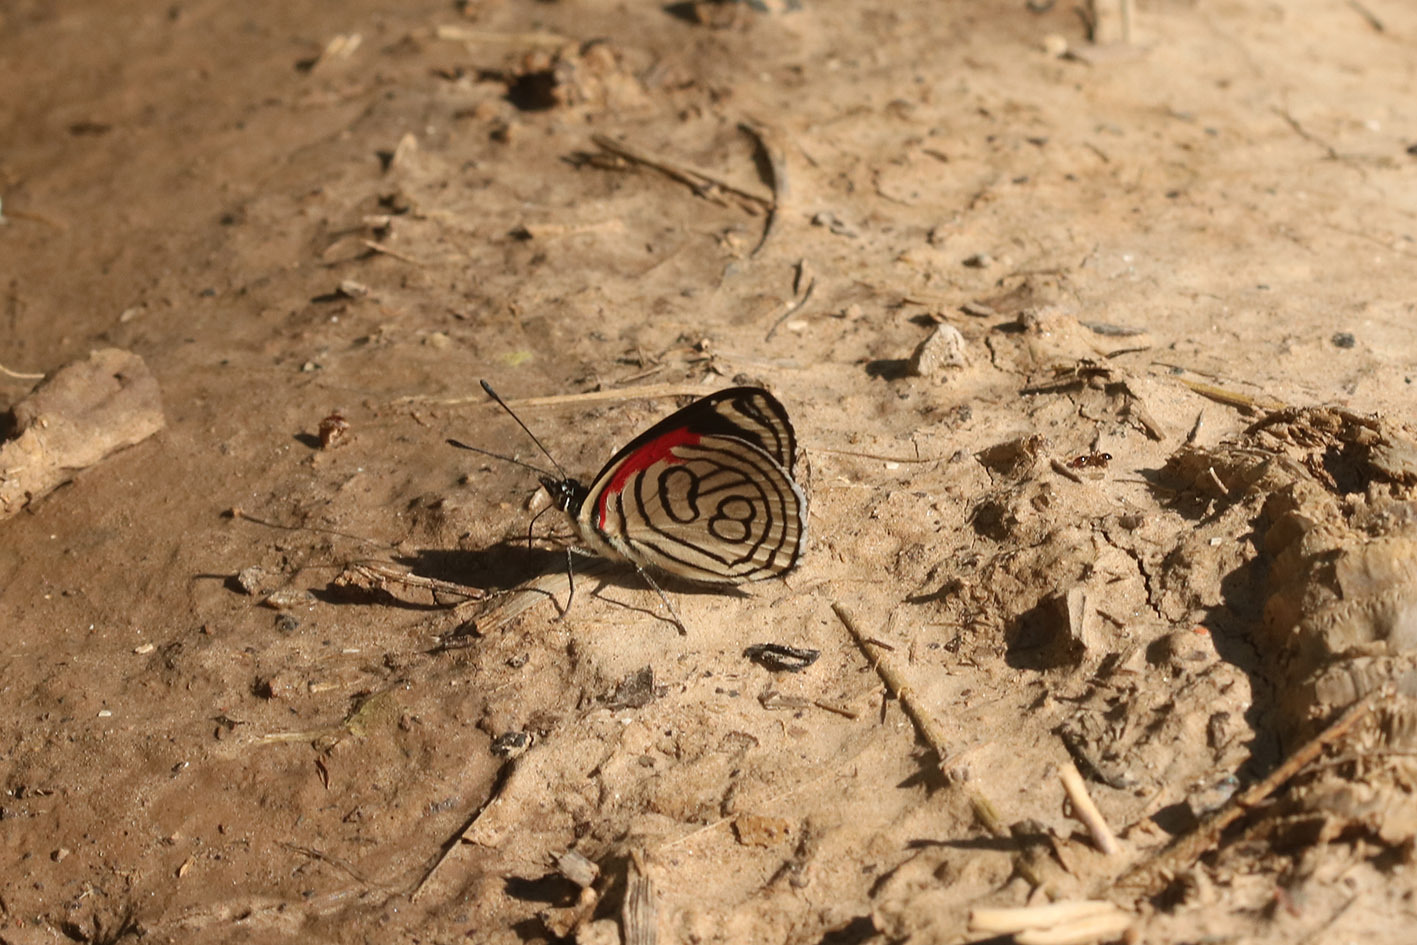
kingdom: Animalia
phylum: Arthropoda
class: Insecta
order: Lepidoptera
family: Nymphalidae
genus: Diaethria
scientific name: Diaethria candrena
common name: Number eighty
